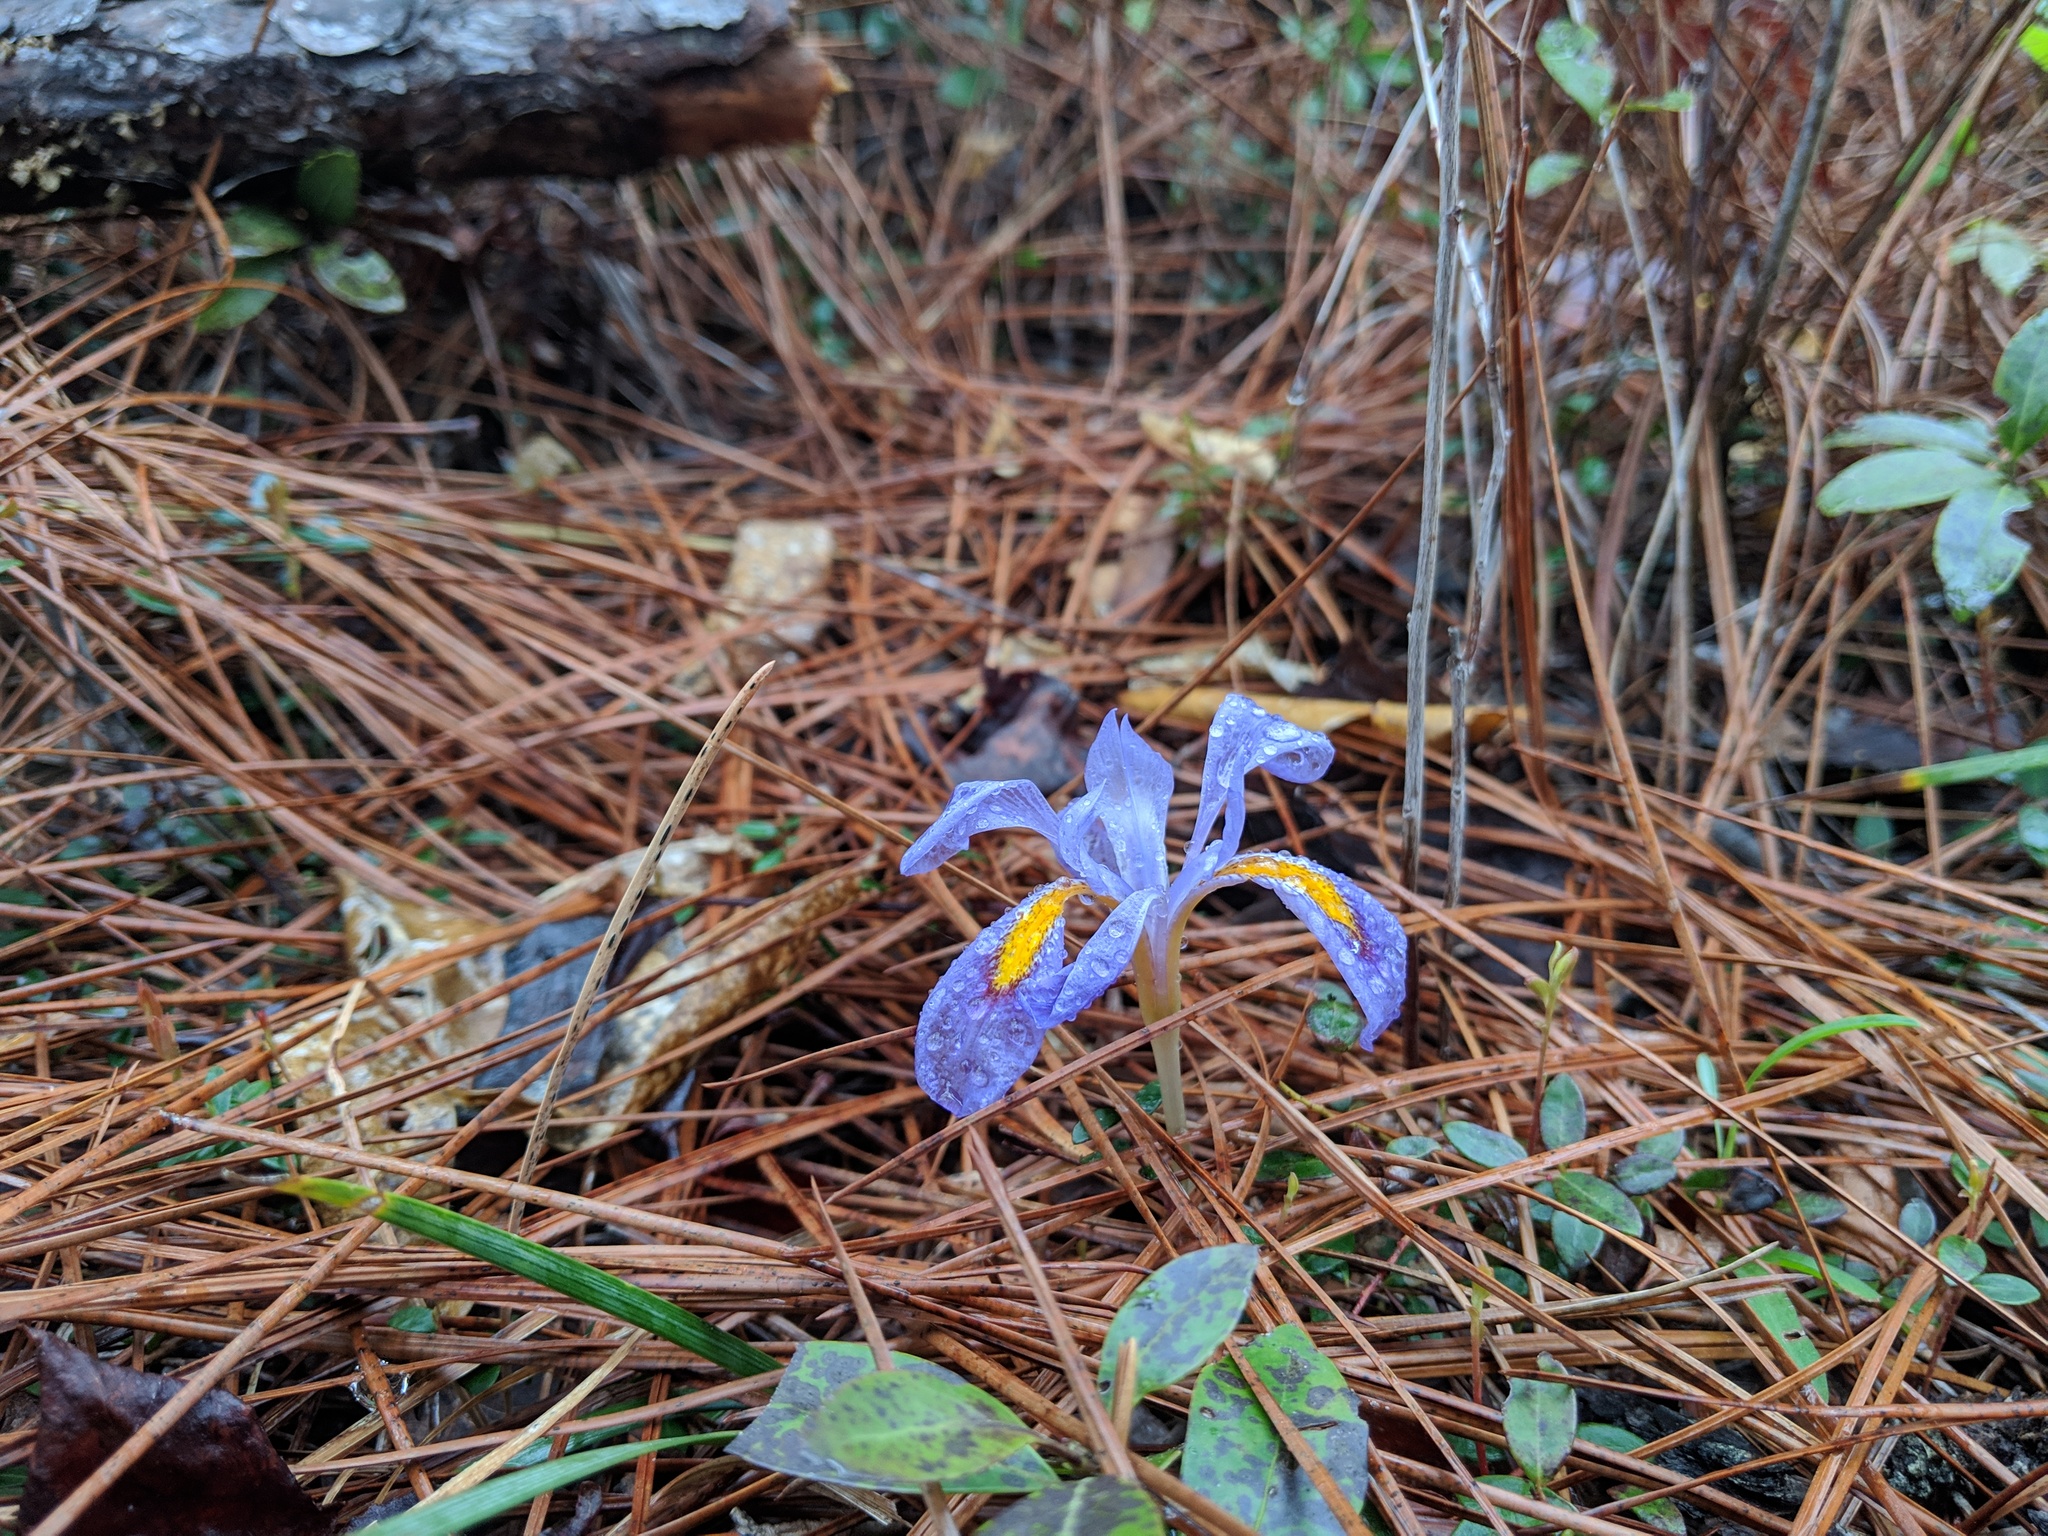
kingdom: Plantae
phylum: Tracheophyta
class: Liliopsida
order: Asparagales
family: Iridaceae
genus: Iris
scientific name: Iris verna
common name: Dwarf iris
